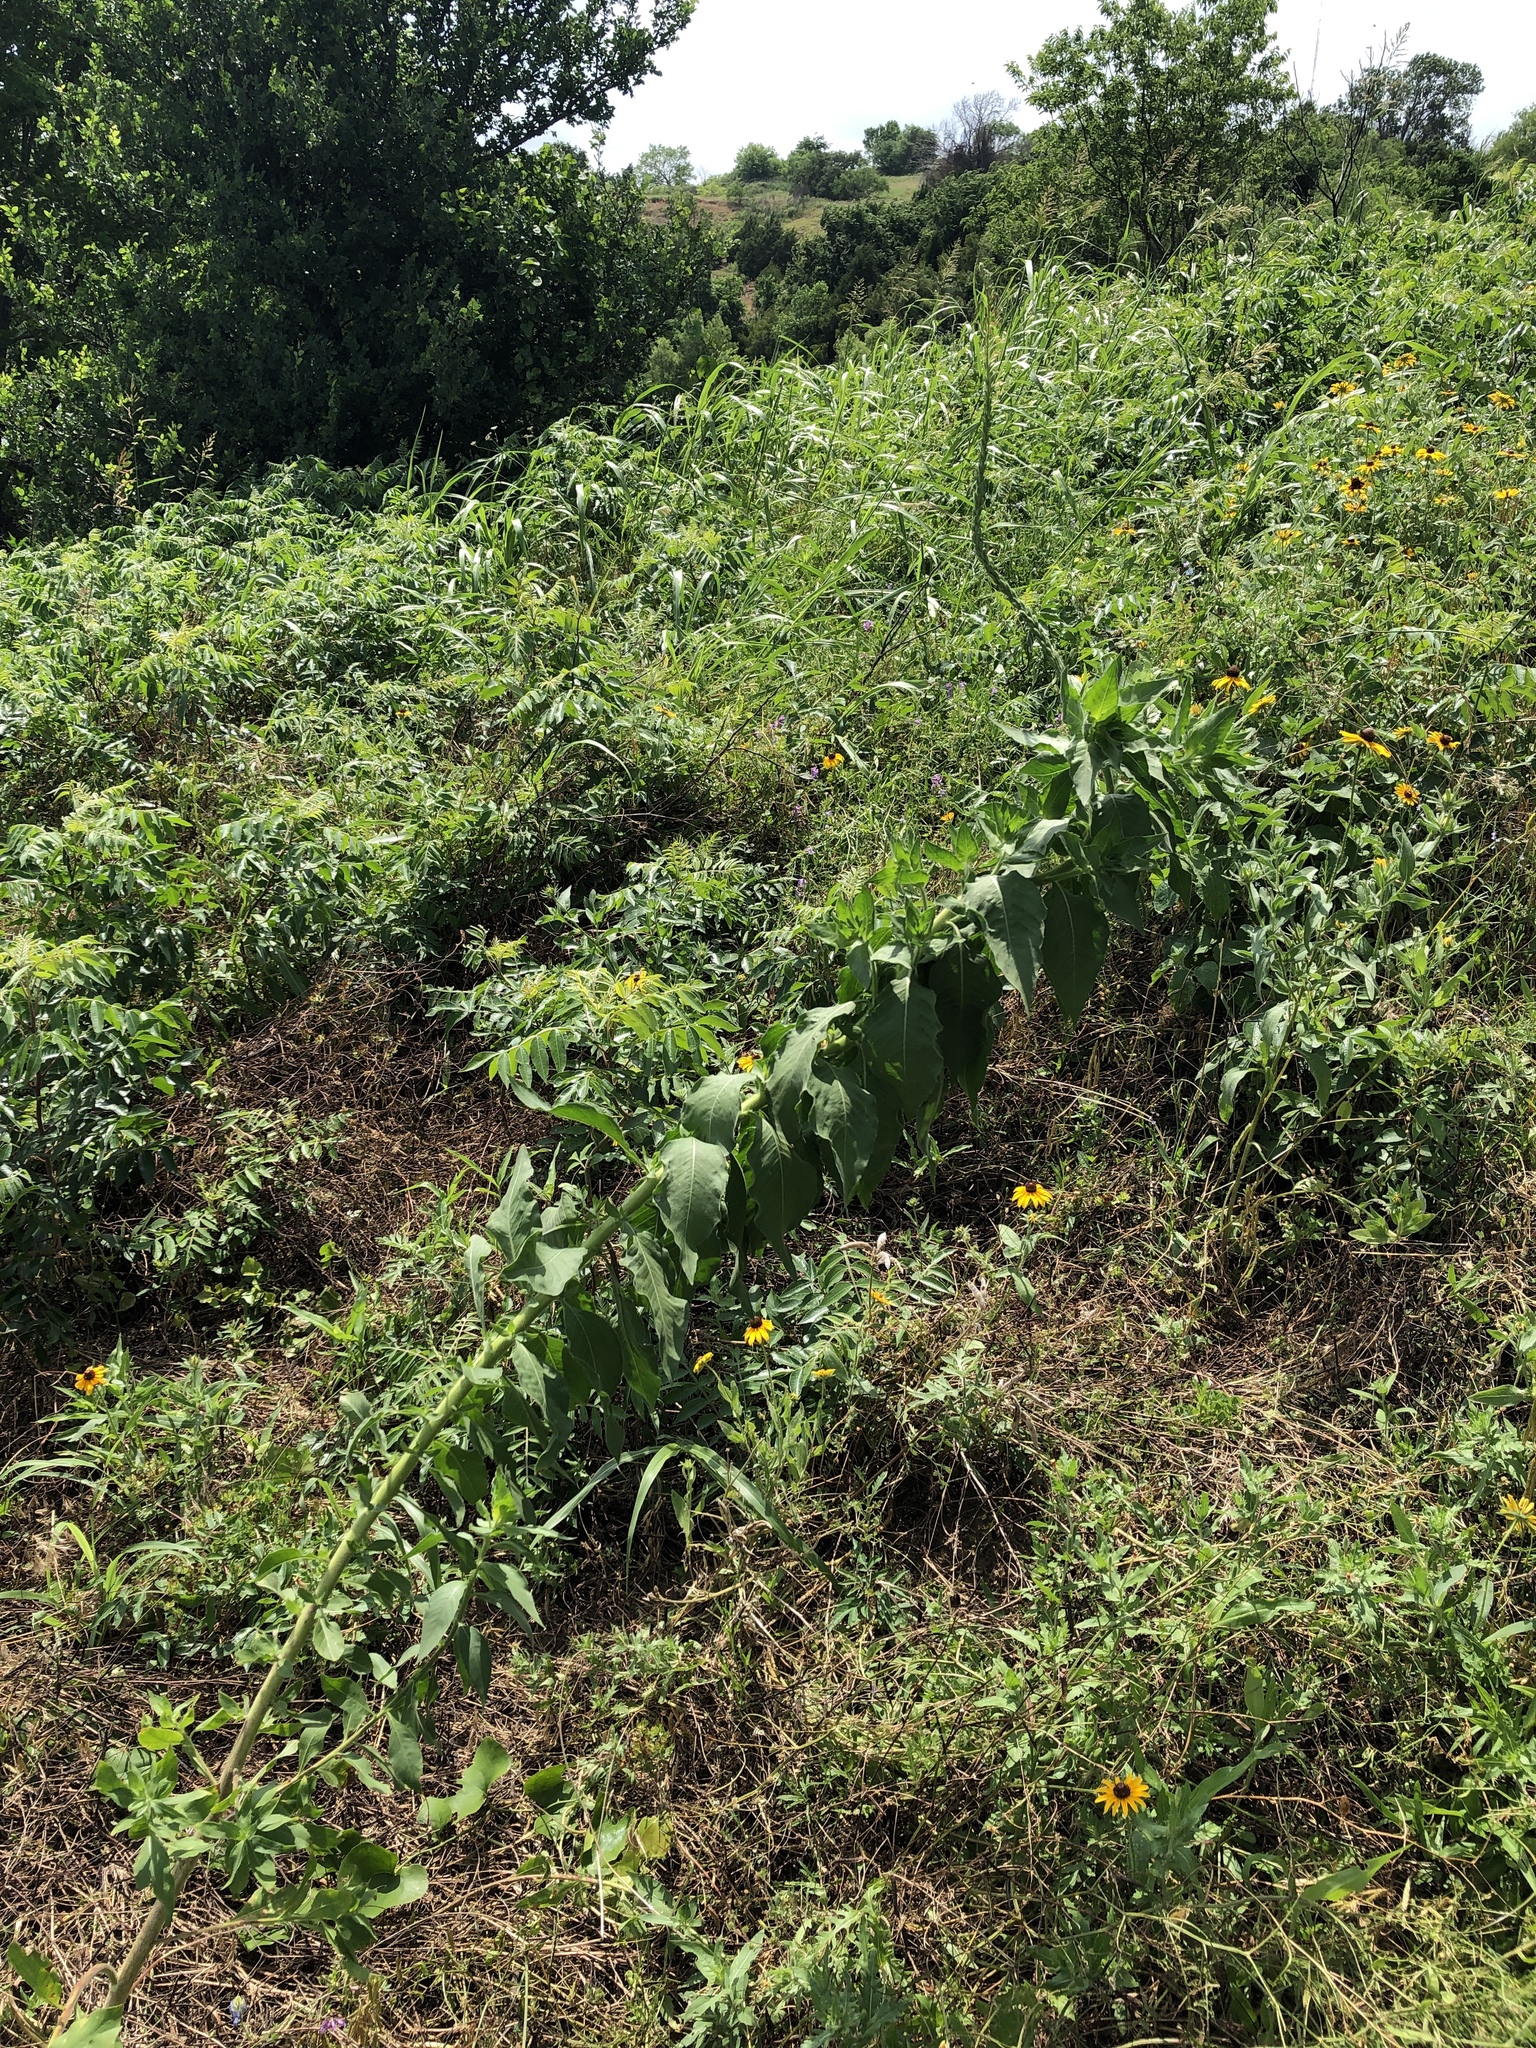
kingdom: Plantae
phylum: Tracheophyta
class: Magnoliopsida
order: Myrtales
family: Onagraceae
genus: Oenothera
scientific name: Oenothera curtiflora
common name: Velvetweed
